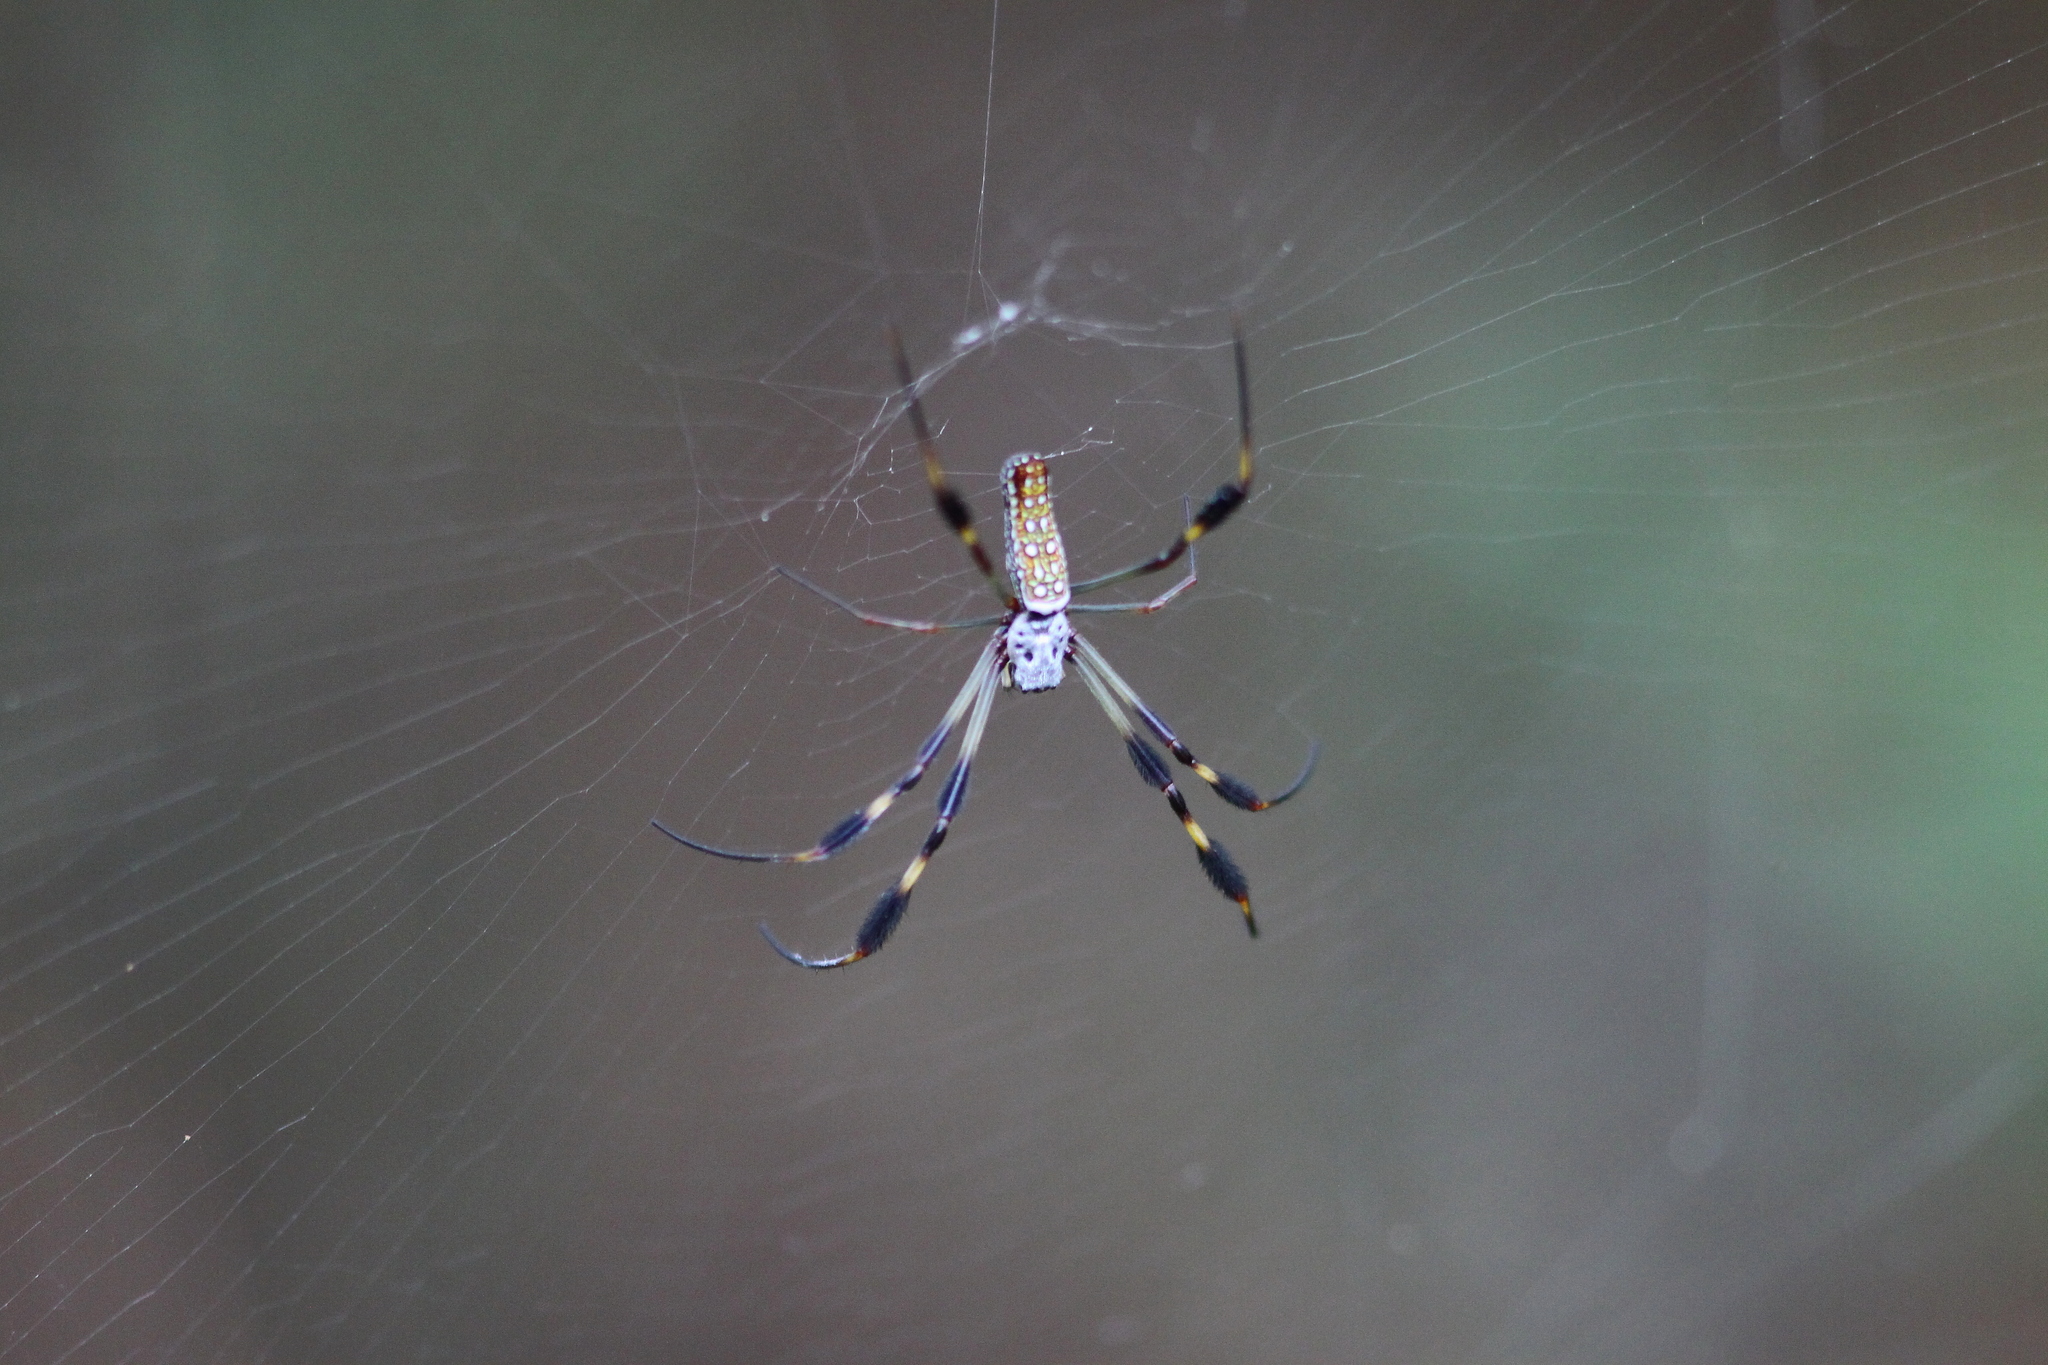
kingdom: Animalia
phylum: Arthropoda
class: Arachnida
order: Araneae
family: Araneidae
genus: Trichonephila
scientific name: Trichonephila clavipes
